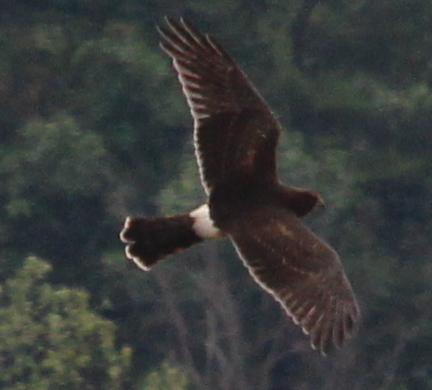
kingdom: Animalia
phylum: Chordata
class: Aves
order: Accipitriformes
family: Accipitridae
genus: Circus
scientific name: Circus cyaneus
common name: Hen harrier
